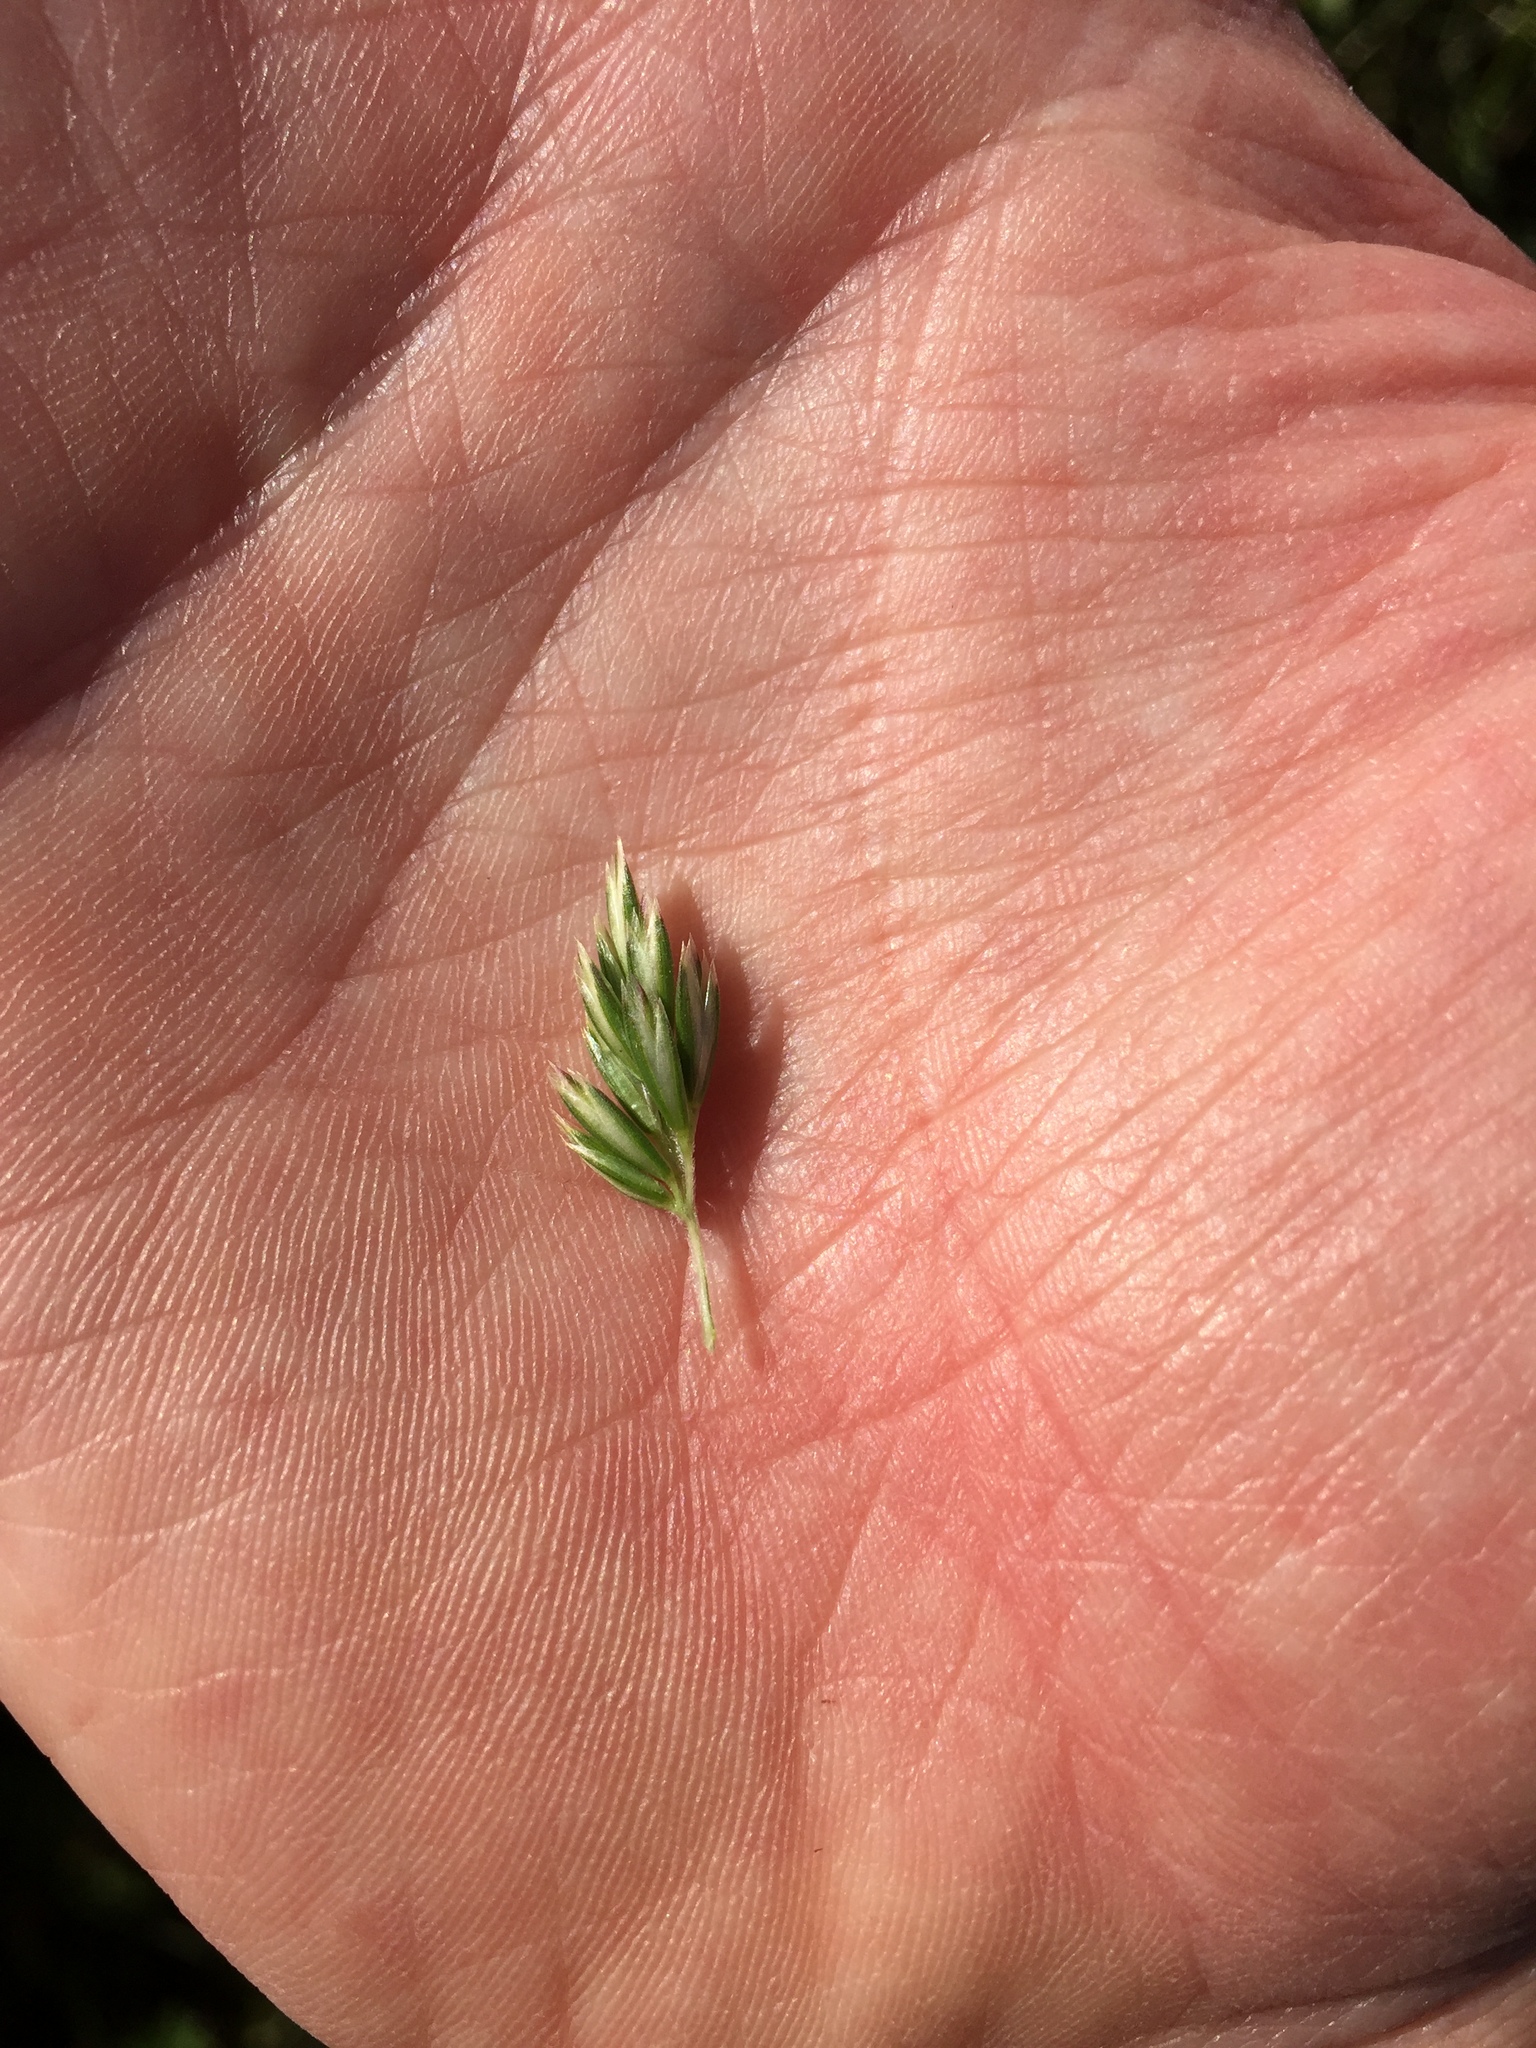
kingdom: Plantae
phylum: Tracheophyta
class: Liliopsida
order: Poales
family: Poaceae
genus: Koeleria
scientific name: Koeleria macrantha
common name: Crested hair-grass
